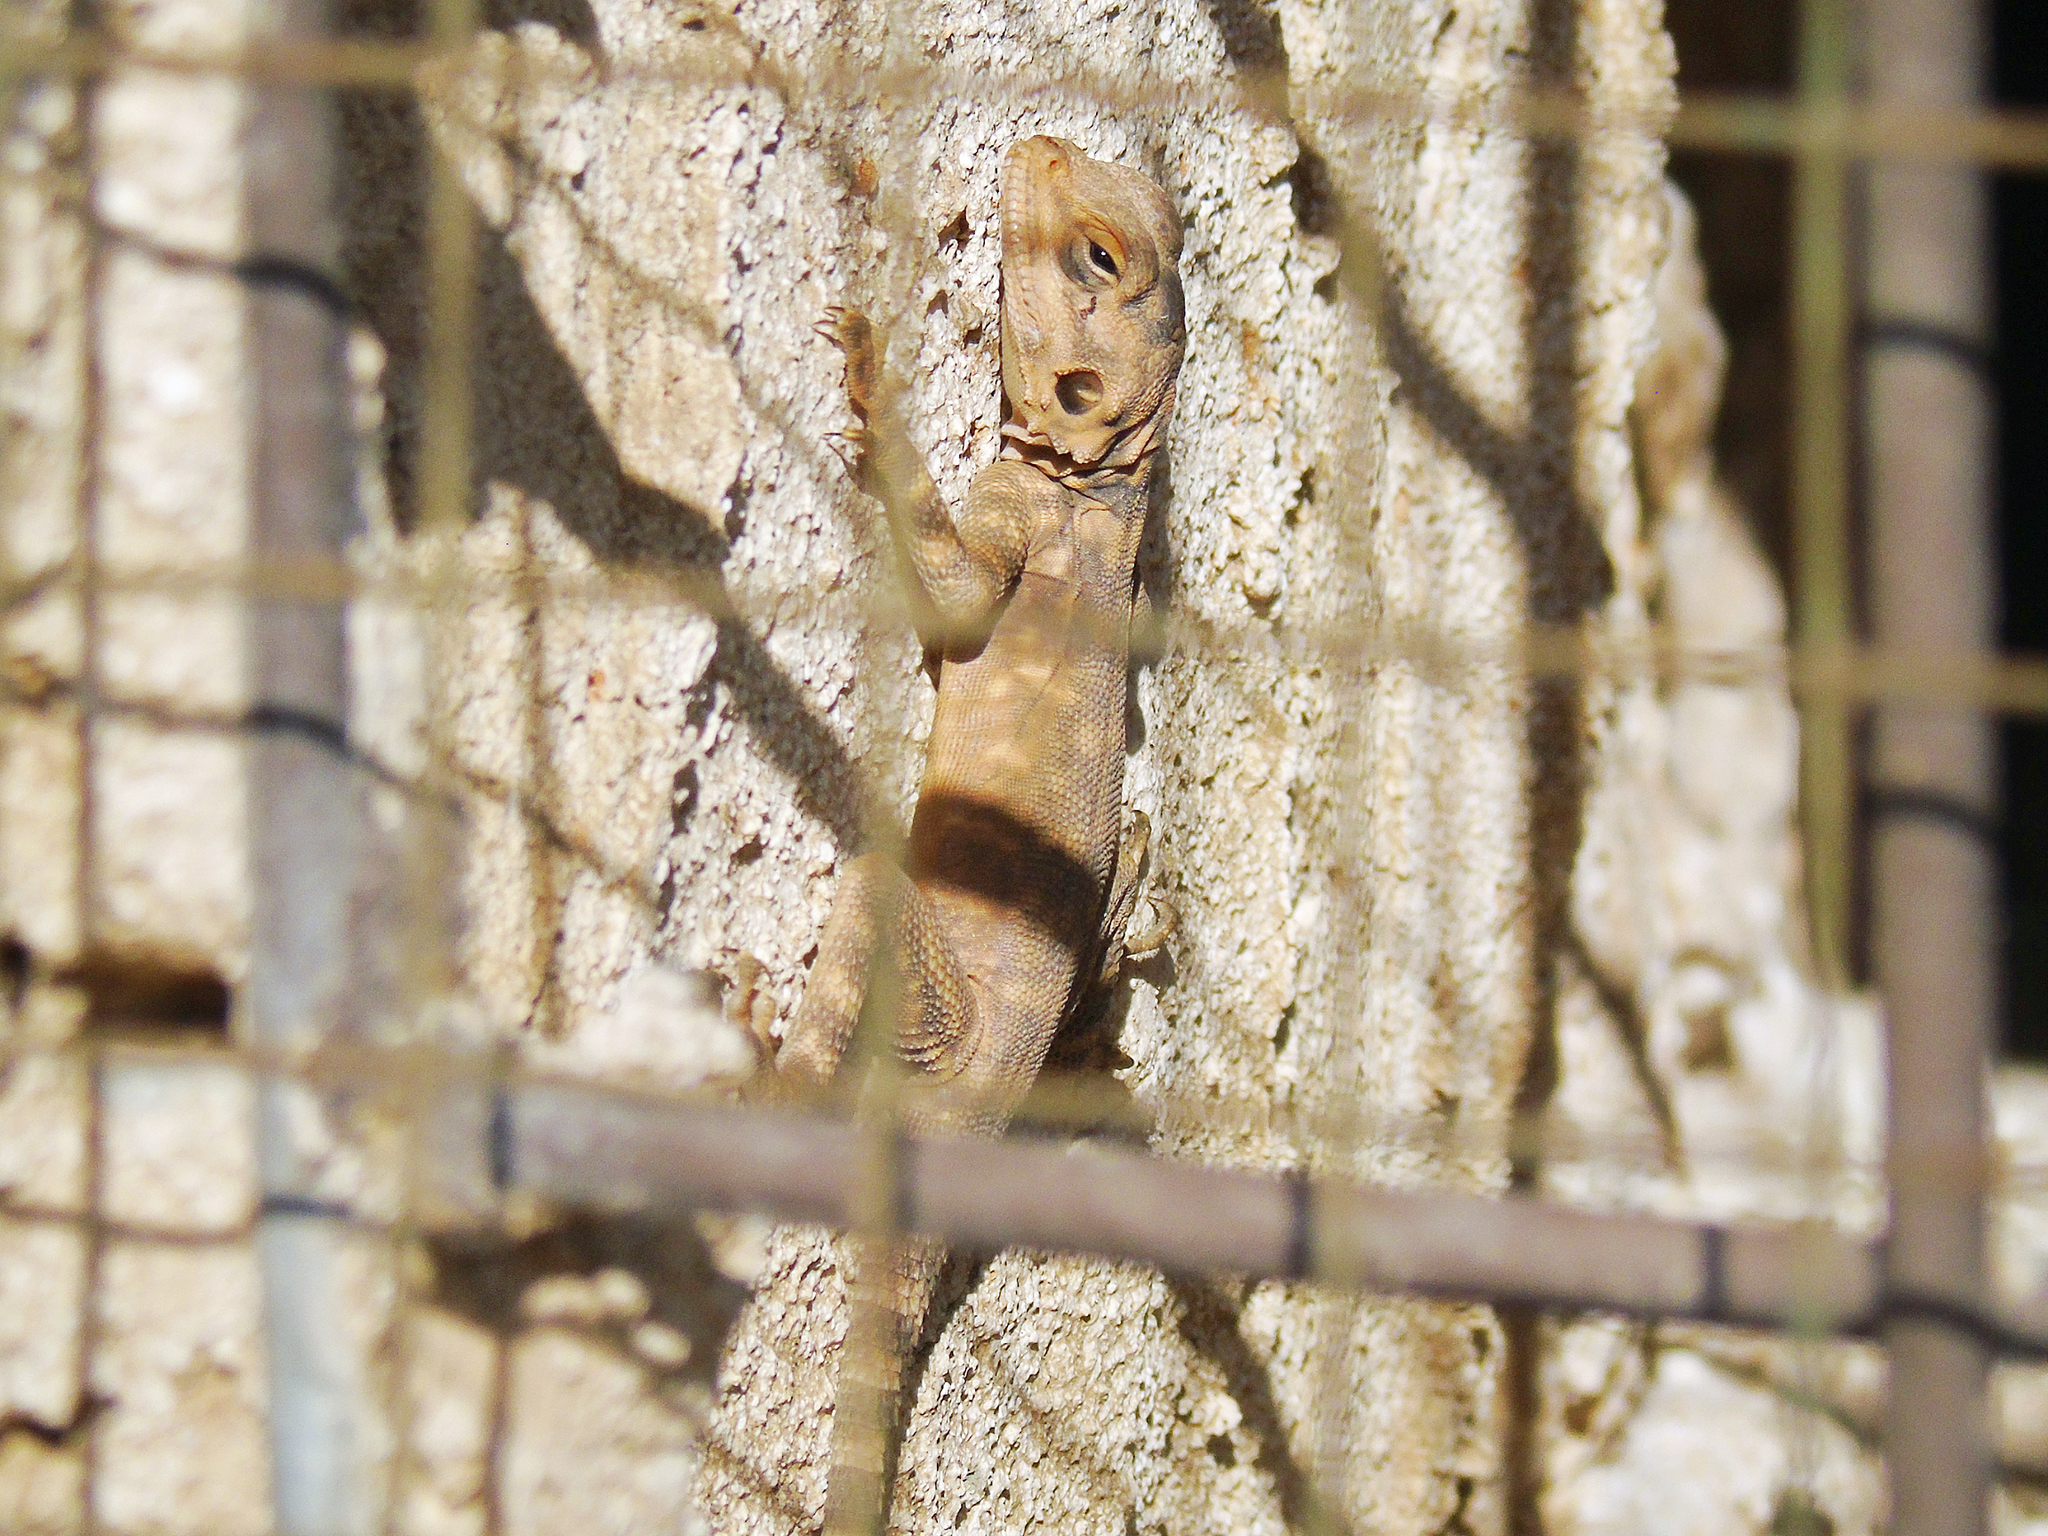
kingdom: Animalia
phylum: Chordata
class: Squamata
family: Agamidae
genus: Laudakia
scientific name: Laudakia nupta
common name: Large-headed rock agama
